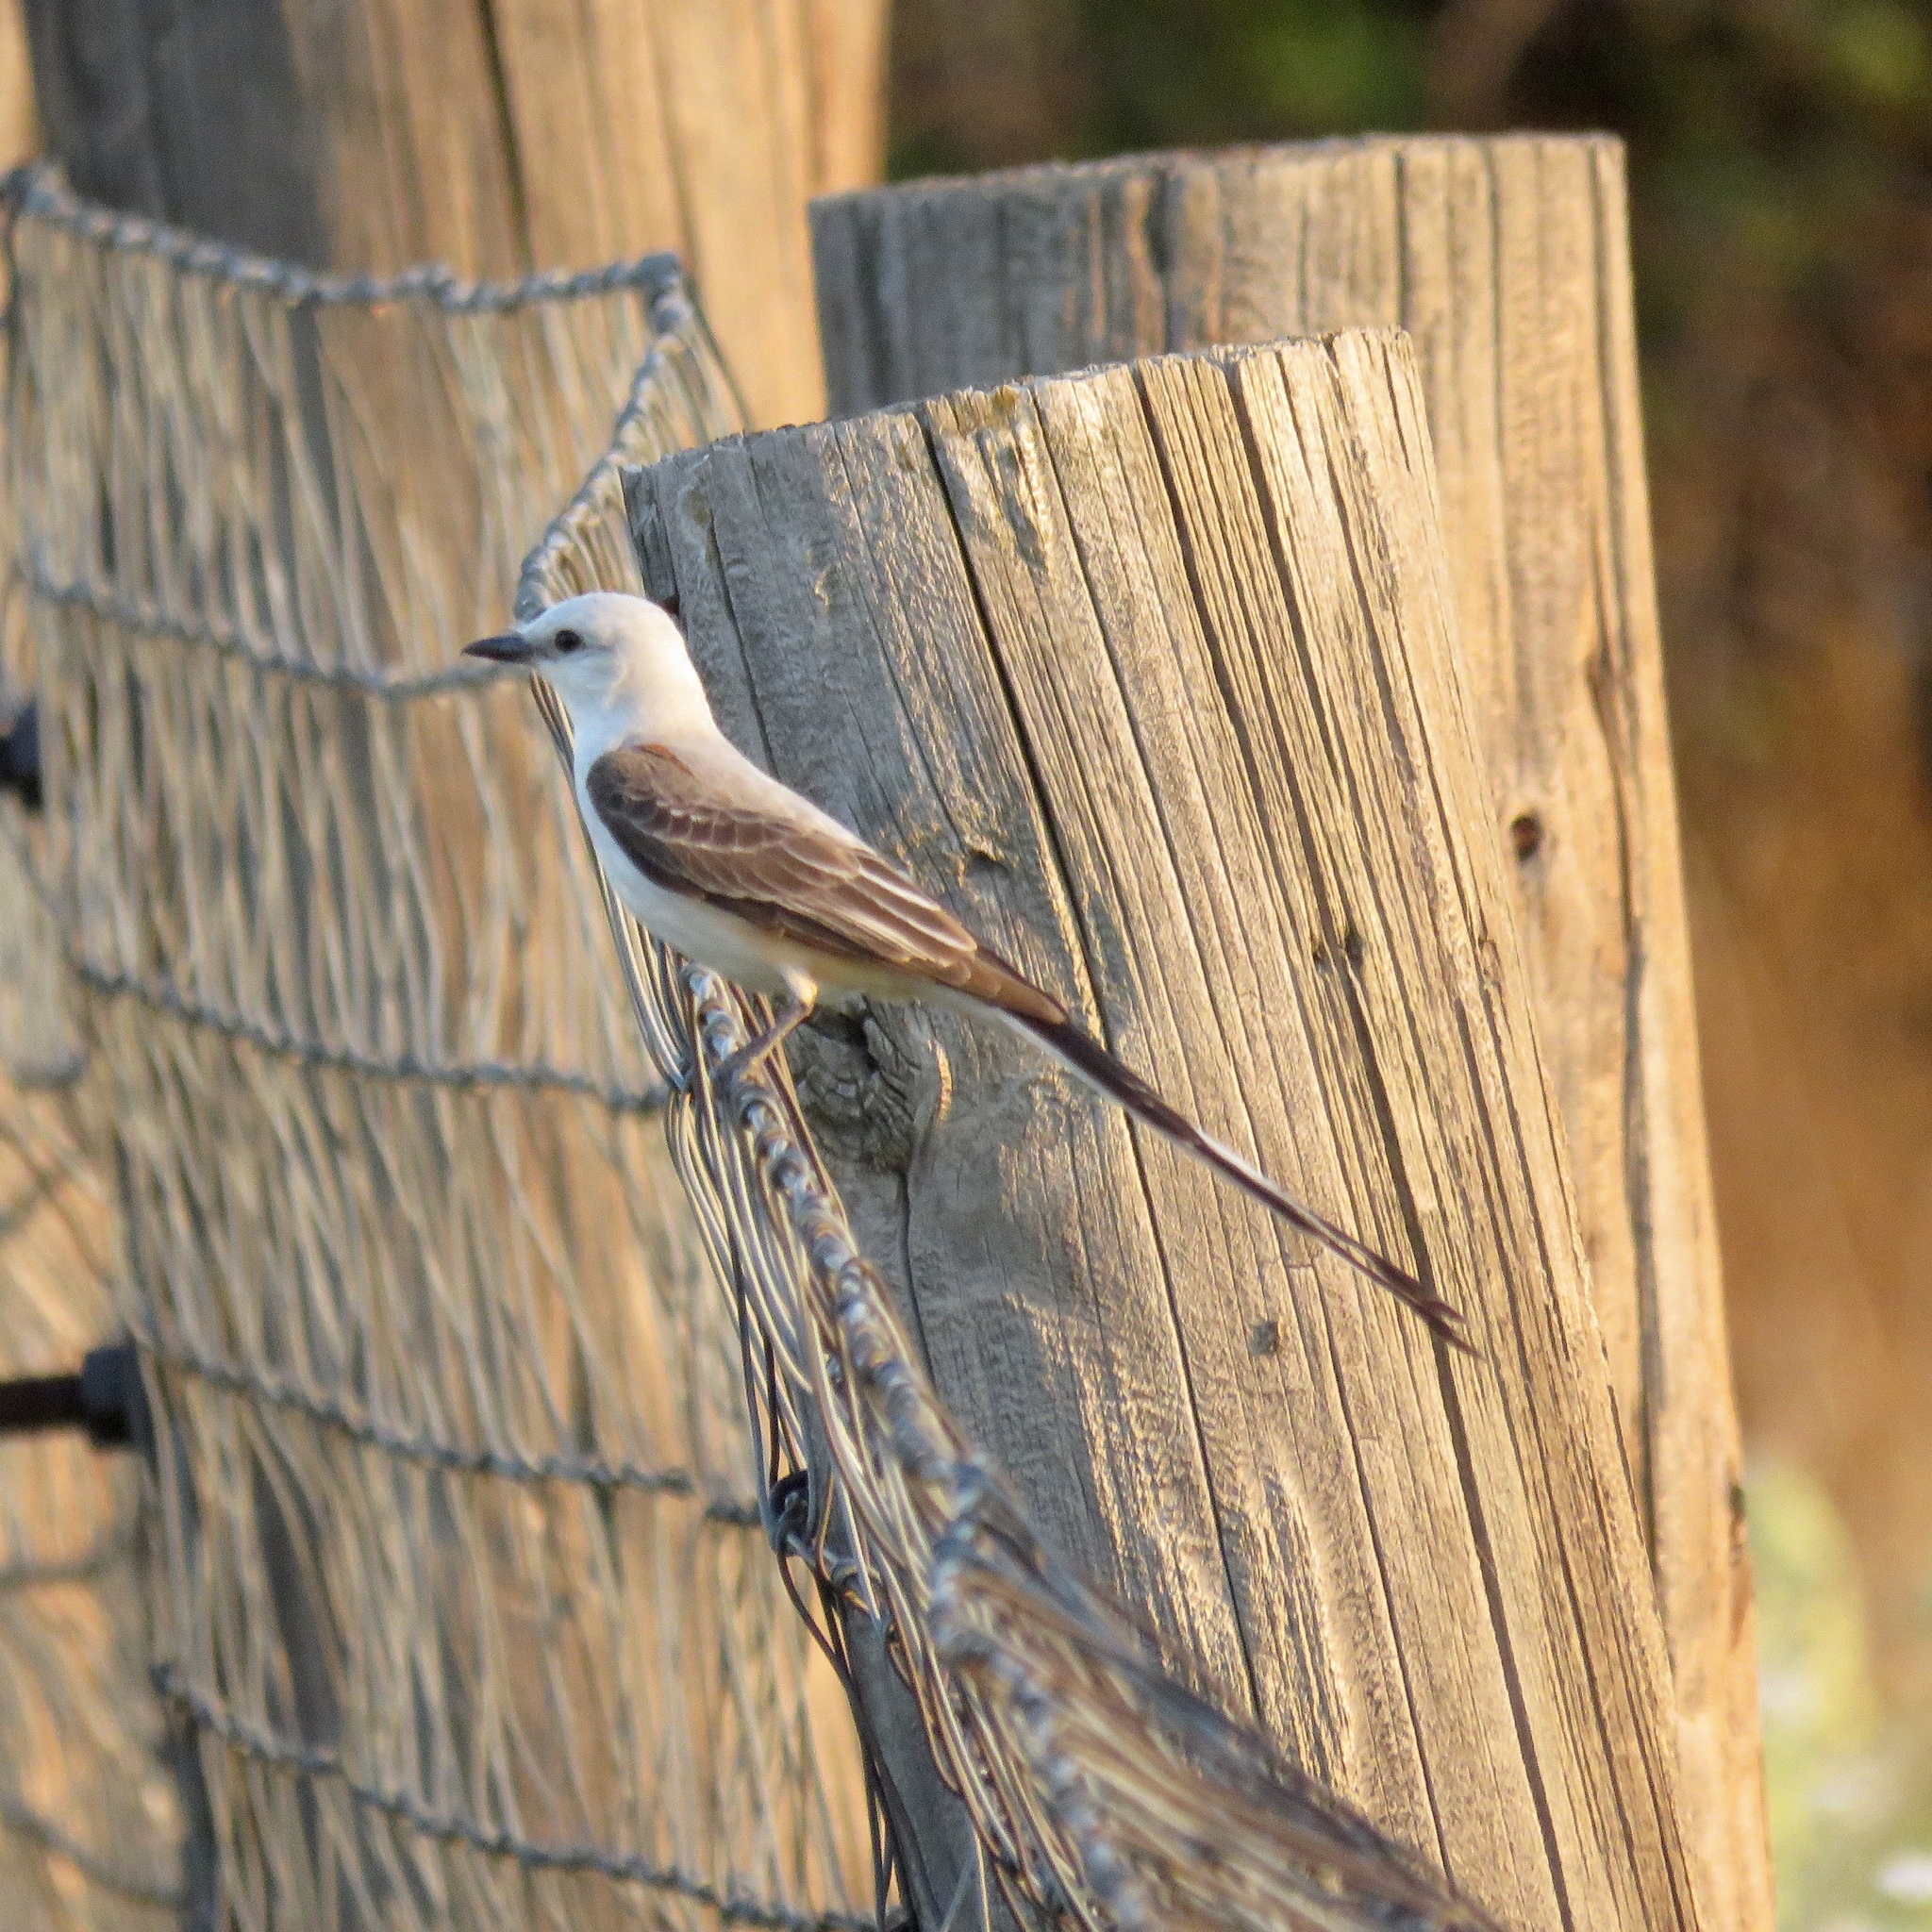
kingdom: Animalia
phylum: Chordata
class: Aves
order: Passeriformes
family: Tyrannidae
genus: Tyrannus
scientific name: Tyrannus forficatus
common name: Scissor-tailed flycatcher
